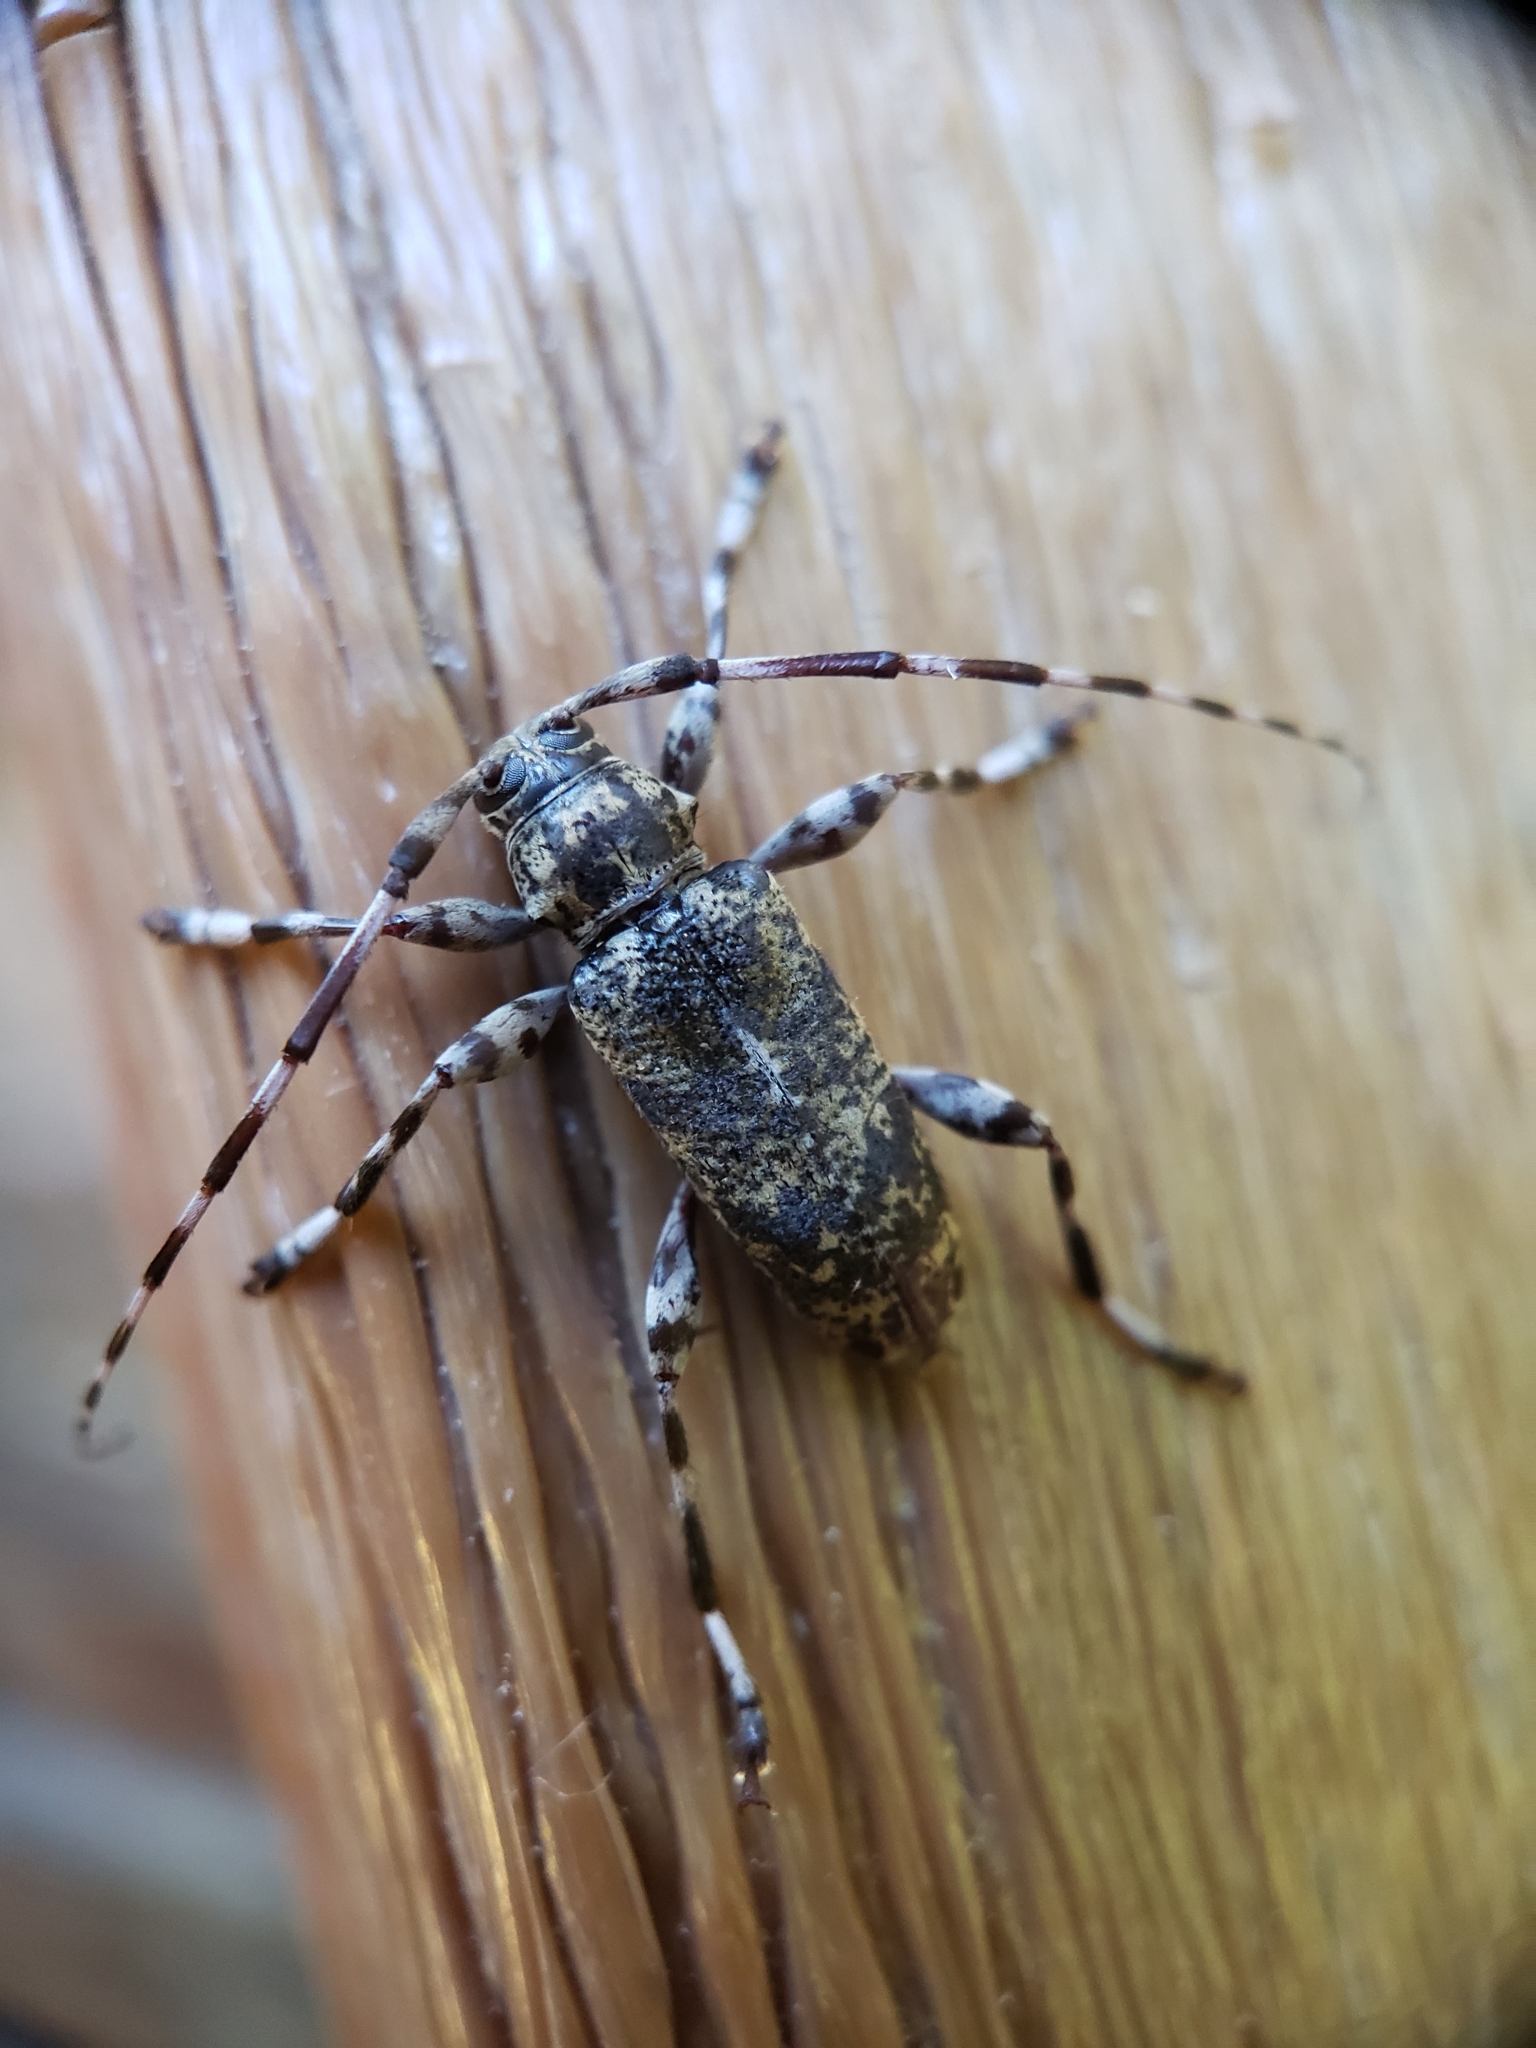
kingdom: Animalia
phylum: Arthropoda
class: Insecta
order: Coleoptera
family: Cerambycidae
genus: Graphisurus
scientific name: Graphisurus fasciatus
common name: Banded graphisurus
